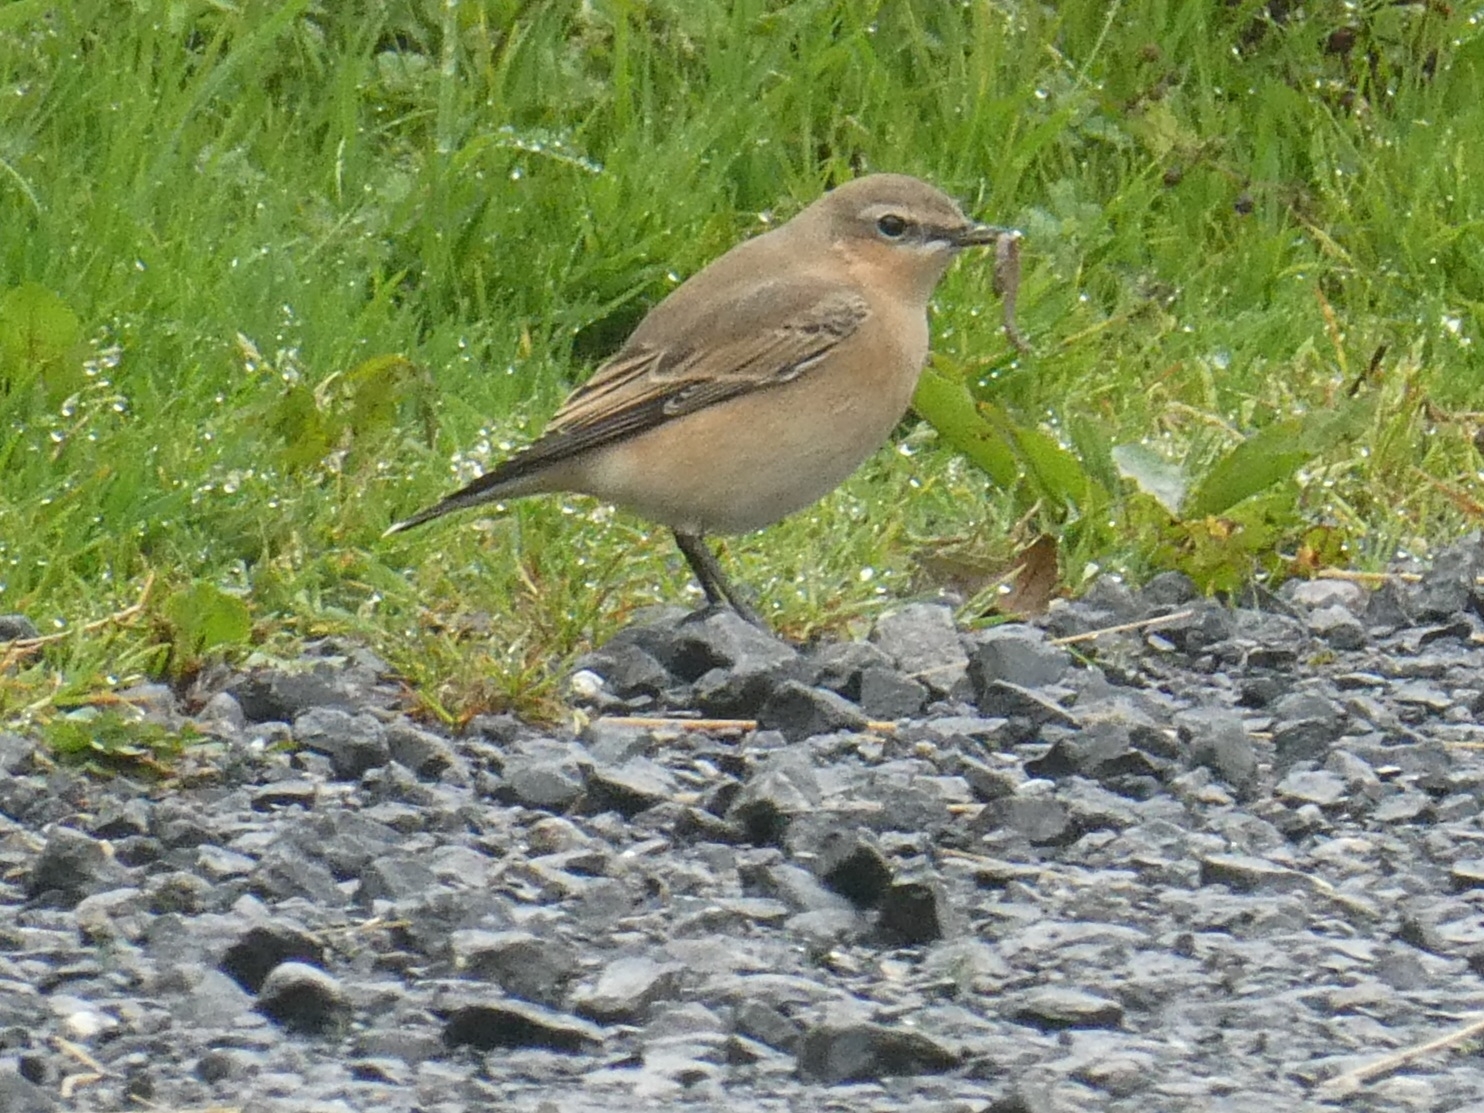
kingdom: Animalia
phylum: Chordata
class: Aves
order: Passeriformes
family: Muscicapidae
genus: Oenanthe
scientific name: Oenanthe oenanthe
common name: Northern wheatear
